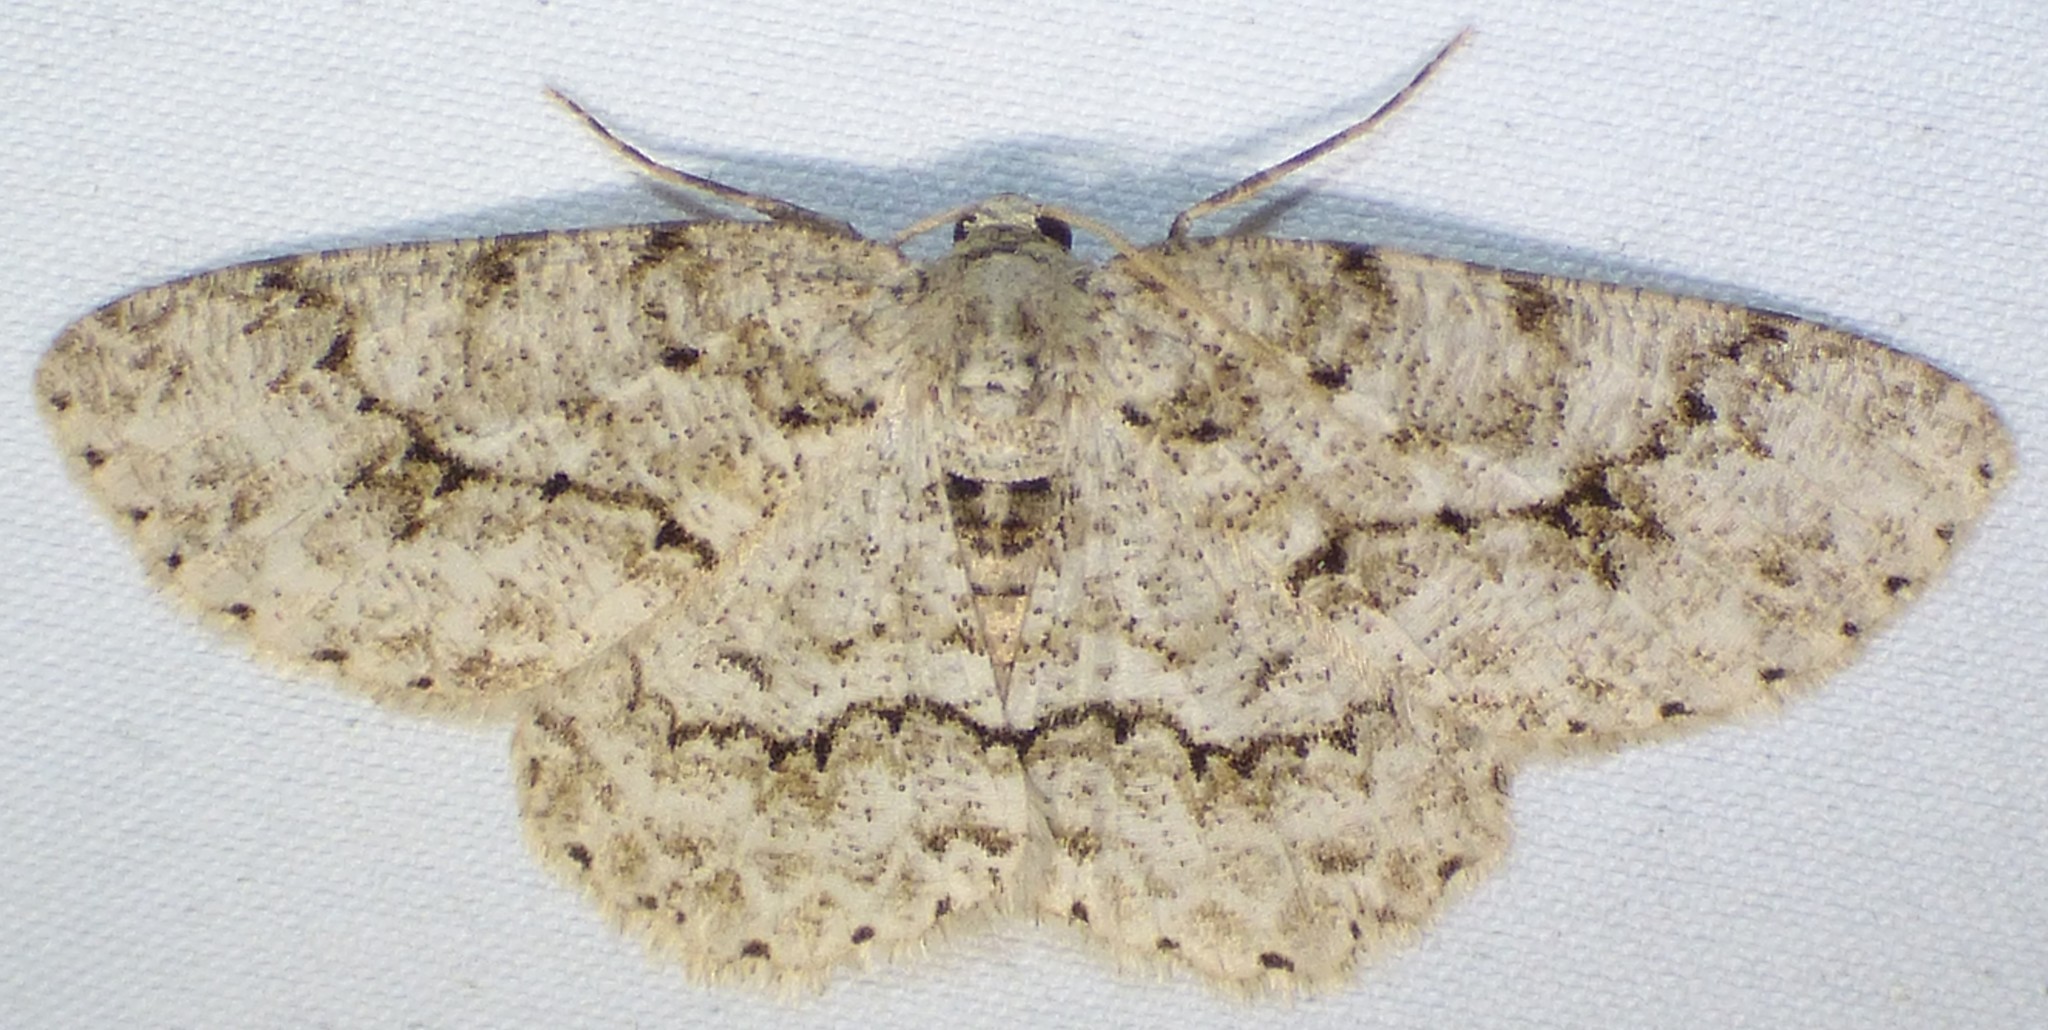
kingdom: Animalia
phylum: Arthropoda
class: Insecta
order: Lepidoptera
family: Geometridae
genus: Ectropis
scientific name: Ectropis crepuscularia
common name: Engrailed
